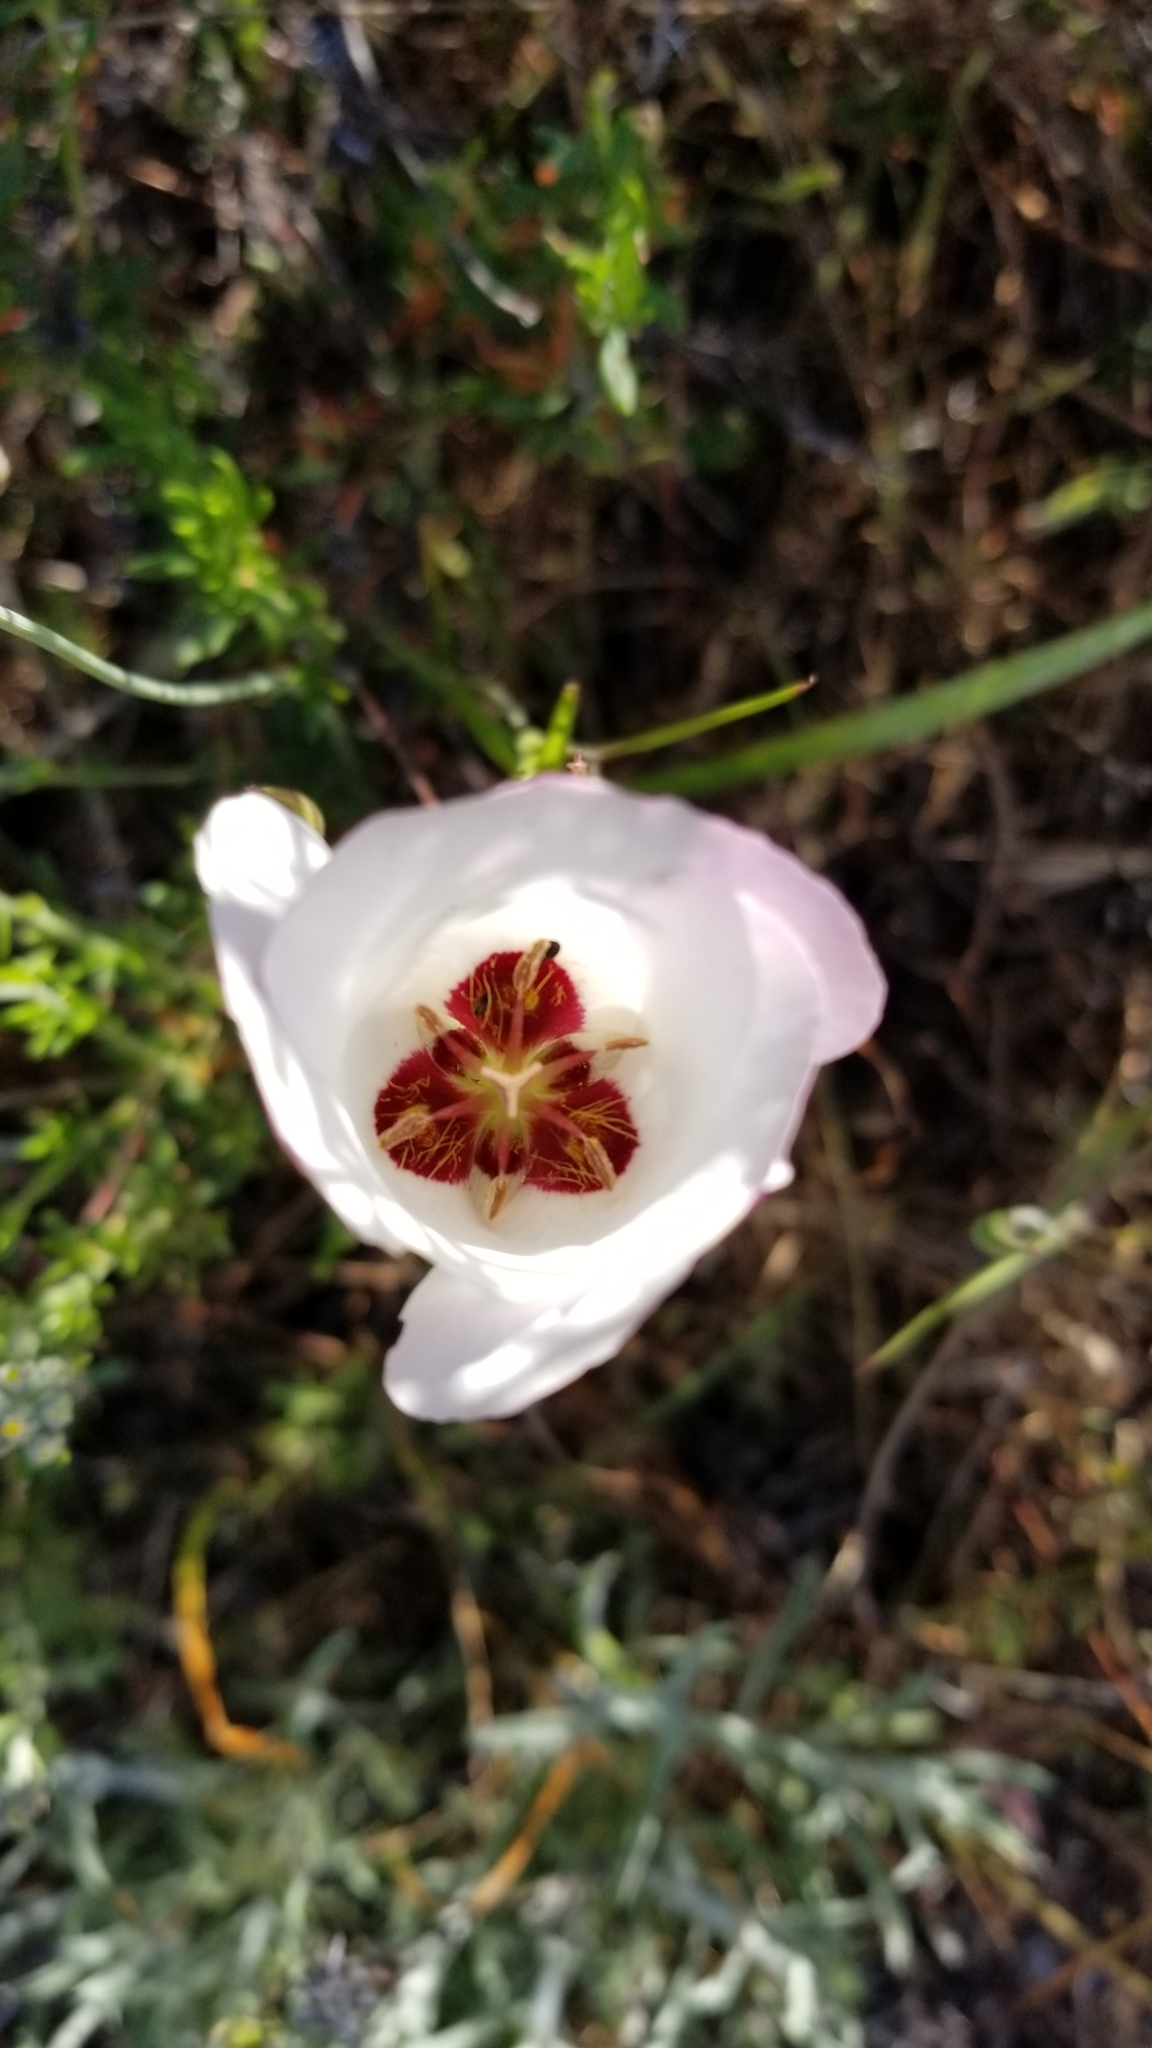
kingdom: Plantae
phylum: Tracheophyta
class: Liliopsida
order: Liliales
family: Liliaceae
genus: Calochortus
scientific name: Calochortus catalinae
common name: Catalina mariposa-lily
